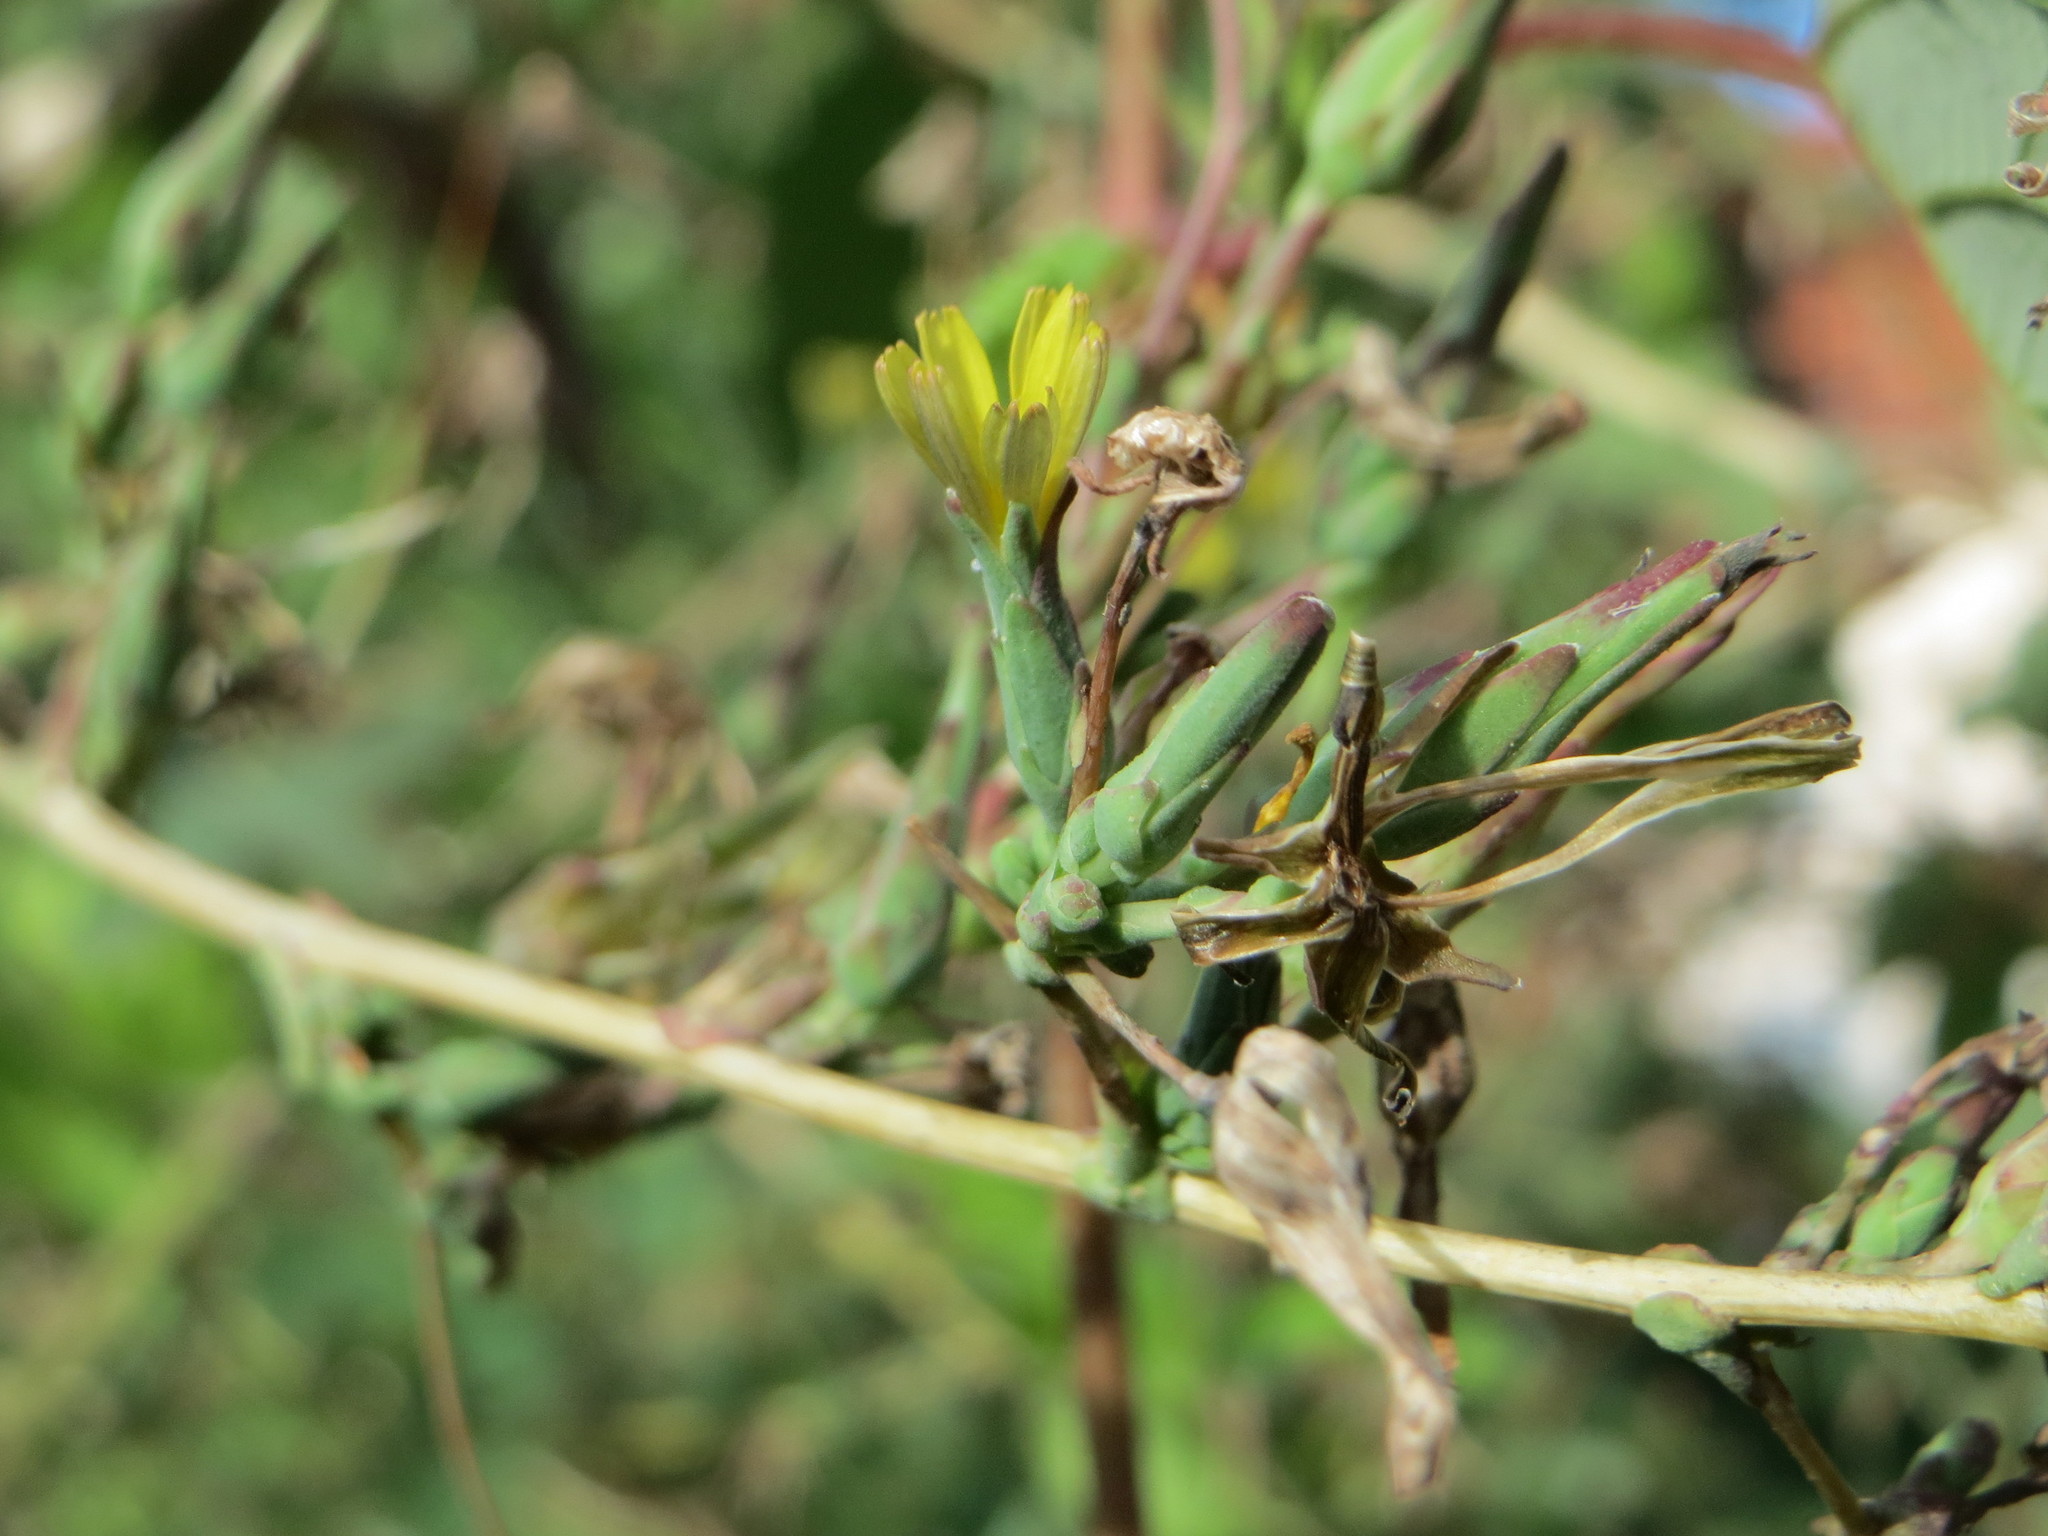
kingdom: Plantae
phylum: Tracheophyta
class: Magnoliopsida
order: Asterales
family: Asteraceae
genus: Lactuca
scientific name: Lactuca serriola
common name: Prickly lettuce
